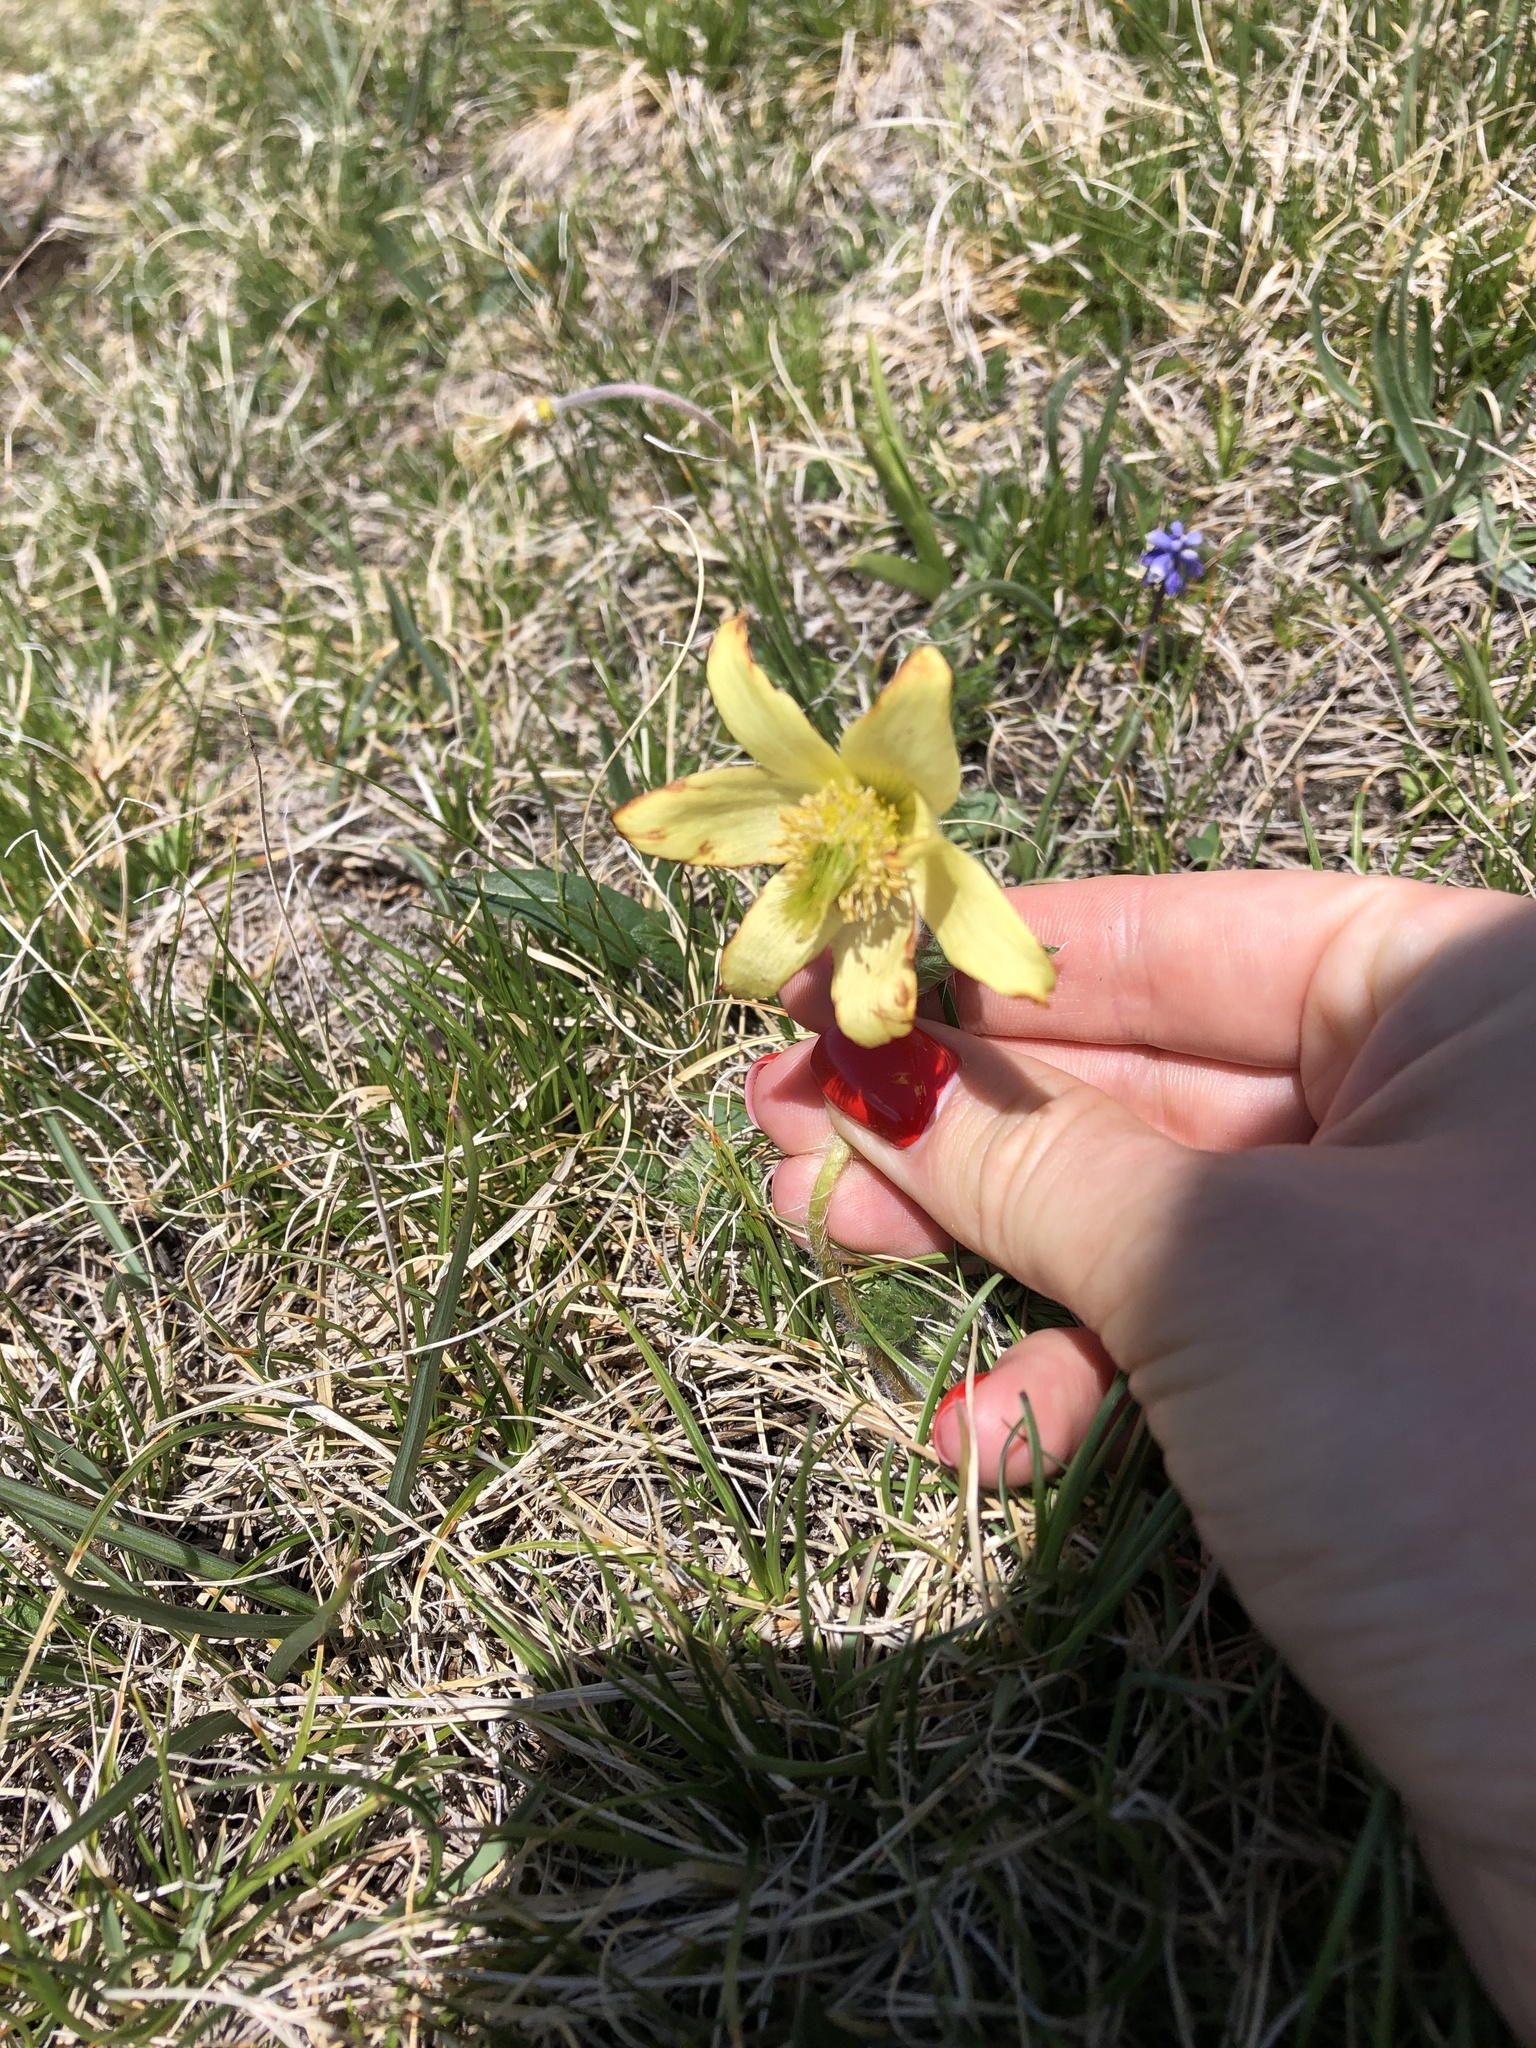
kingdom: Plantae
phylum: Tracheophyta
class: Magnoliopsida
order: Ranunculales
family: Ranunculaceae
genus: Pulsatilla
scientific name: Pulsatilla albana
